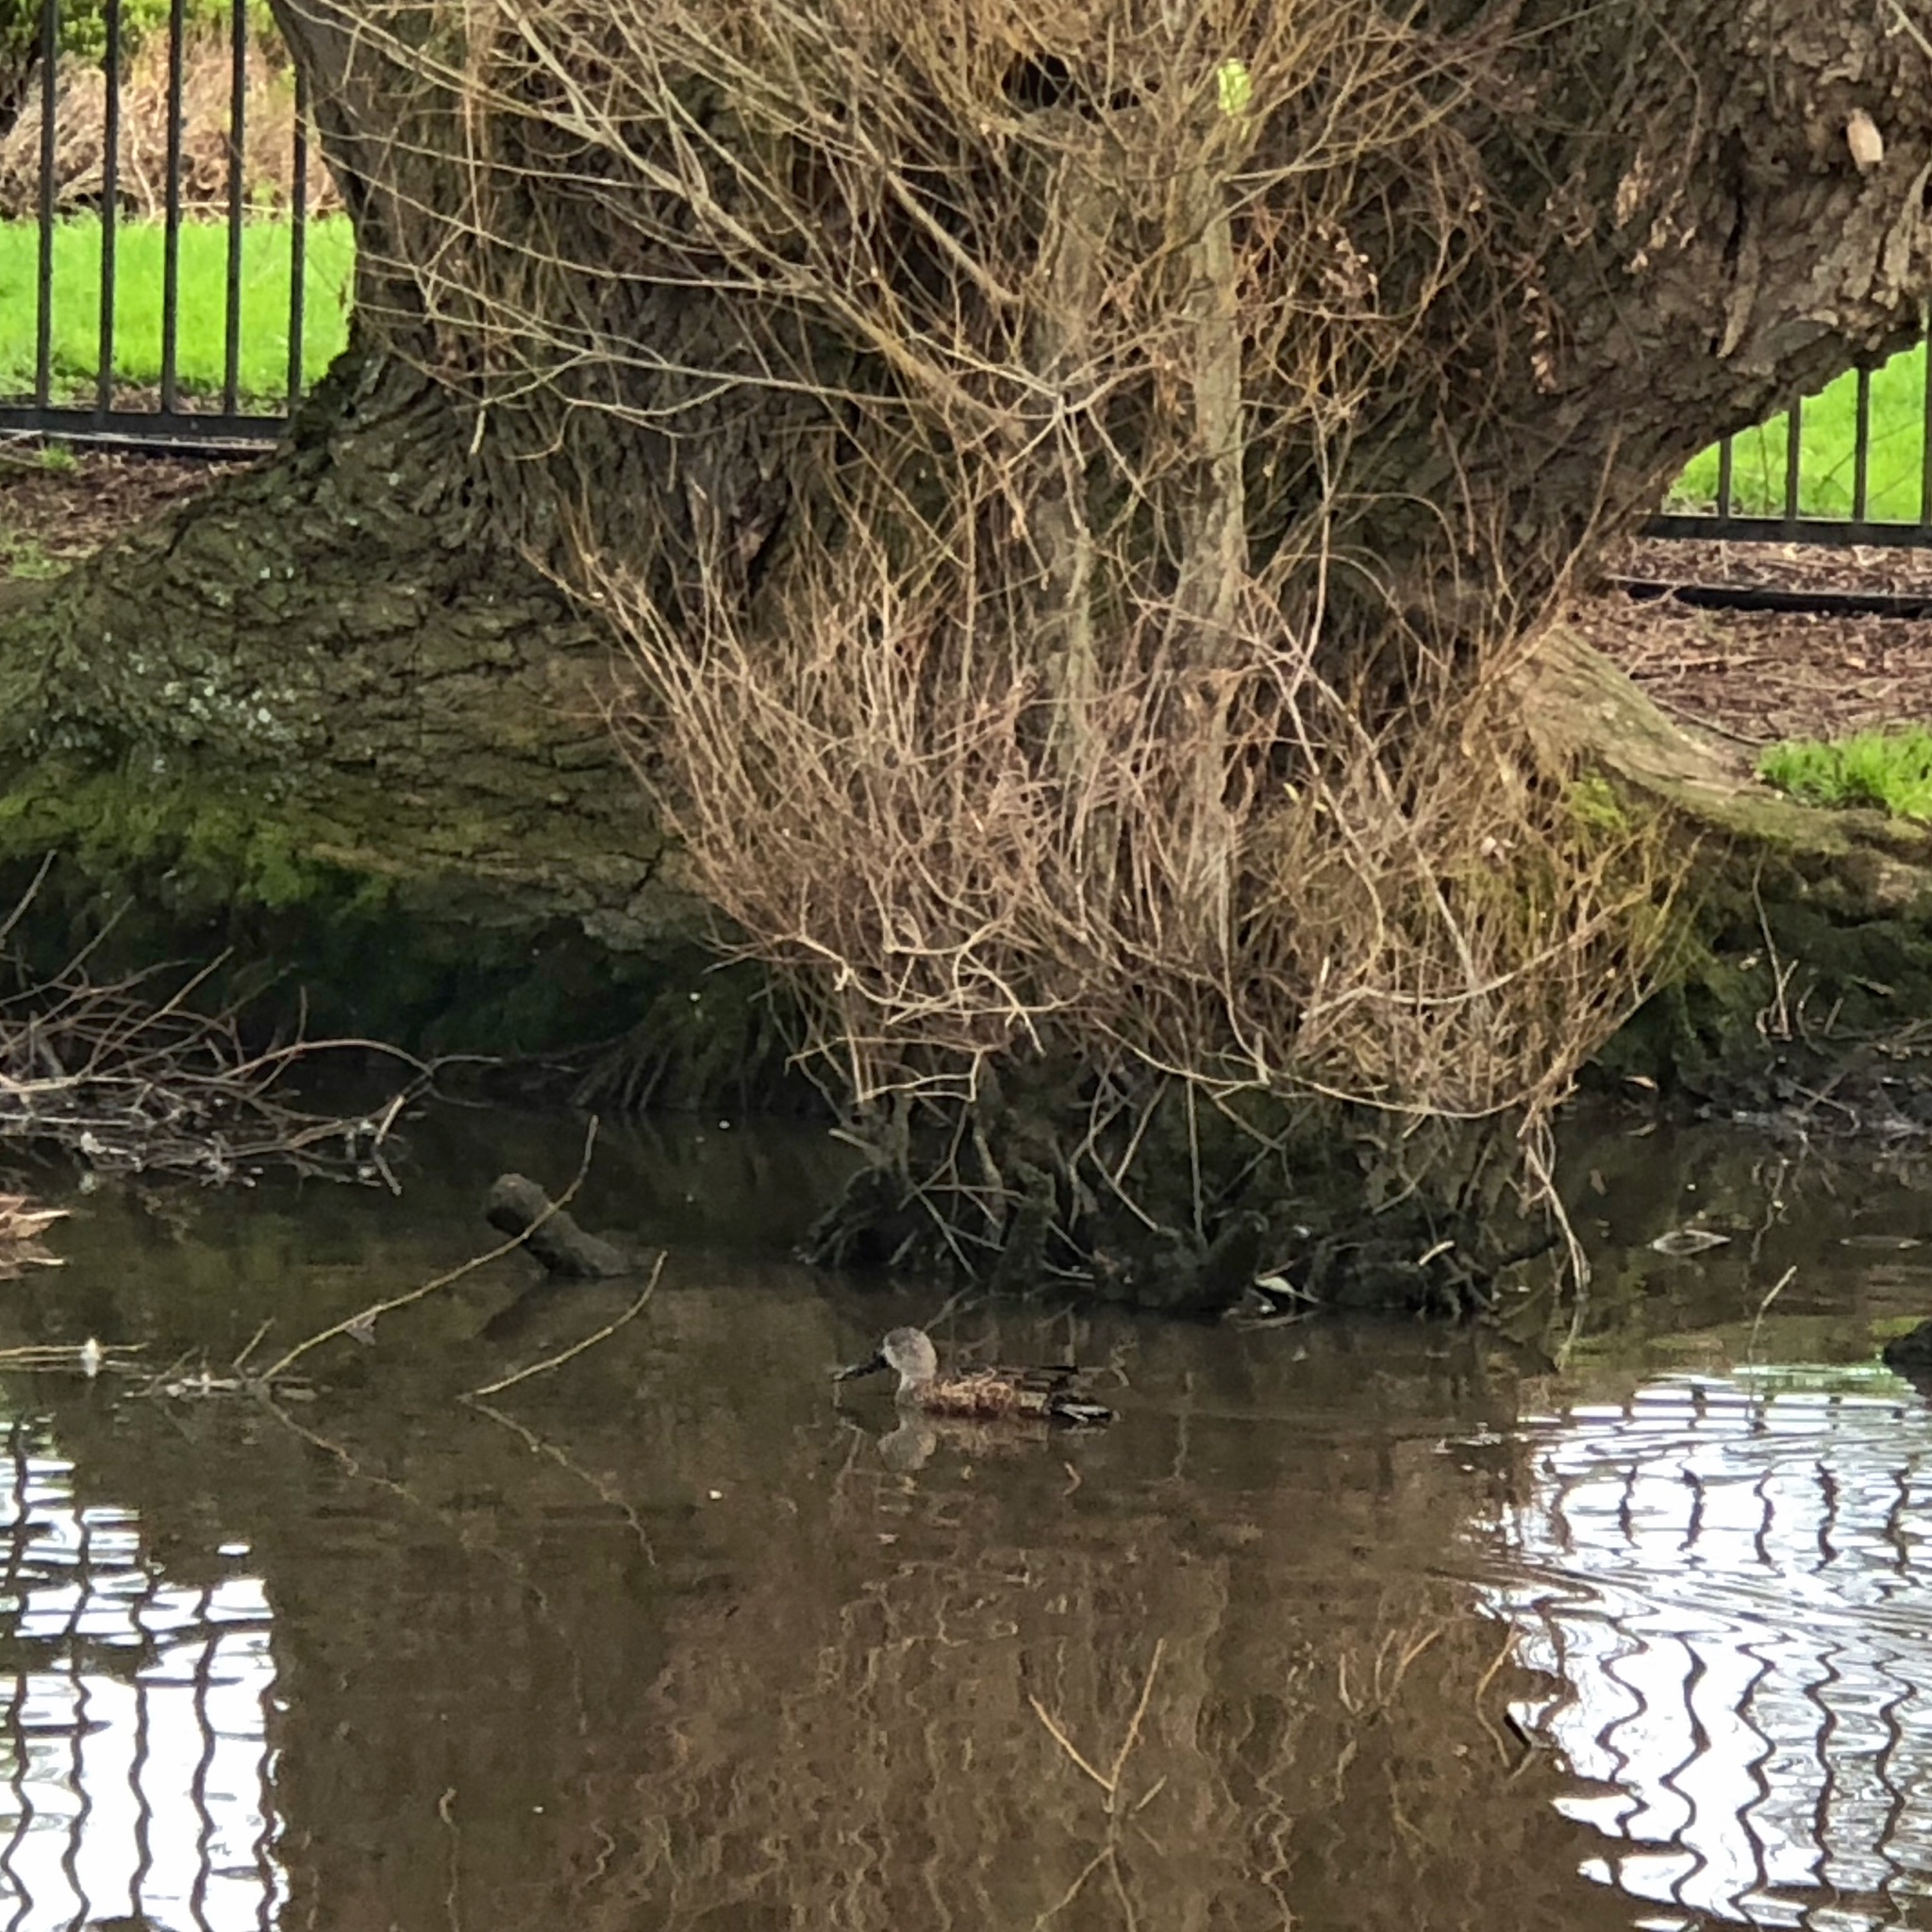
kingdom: Animalia
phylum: Chordata
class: Aves
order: Anseriformes
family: Anatidae
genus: Spatula
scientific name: Spatula rhynchotis
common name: Australian shoveler
